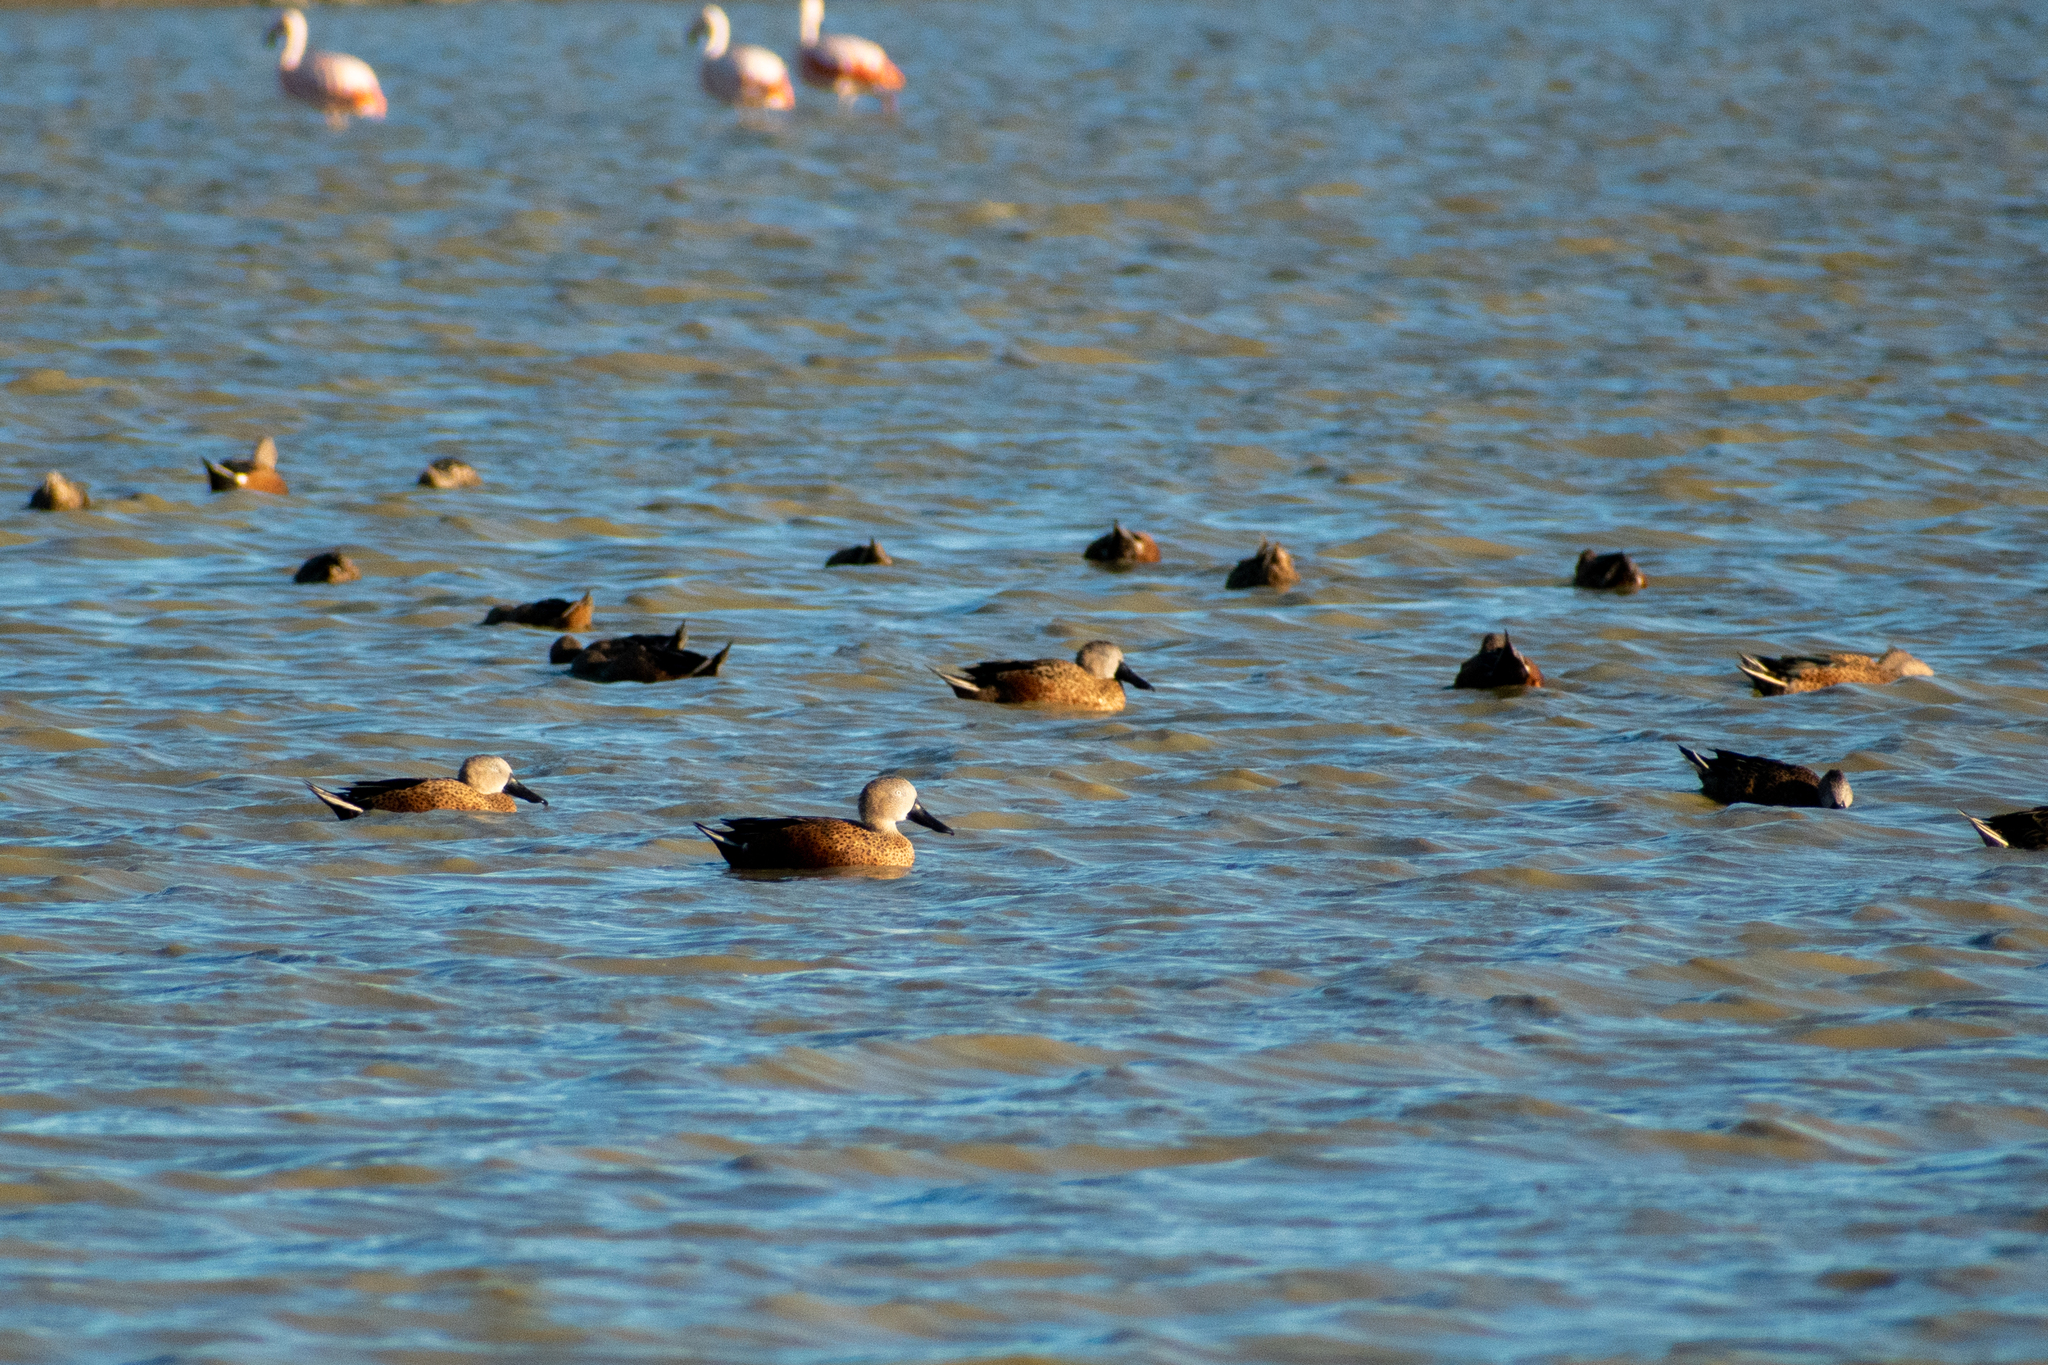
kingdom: Animalia
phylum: Chordata
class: Aves
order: Anseriformes
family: Anatidae
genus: Spatula
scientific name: Spatula platalea
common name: Red shoveler
